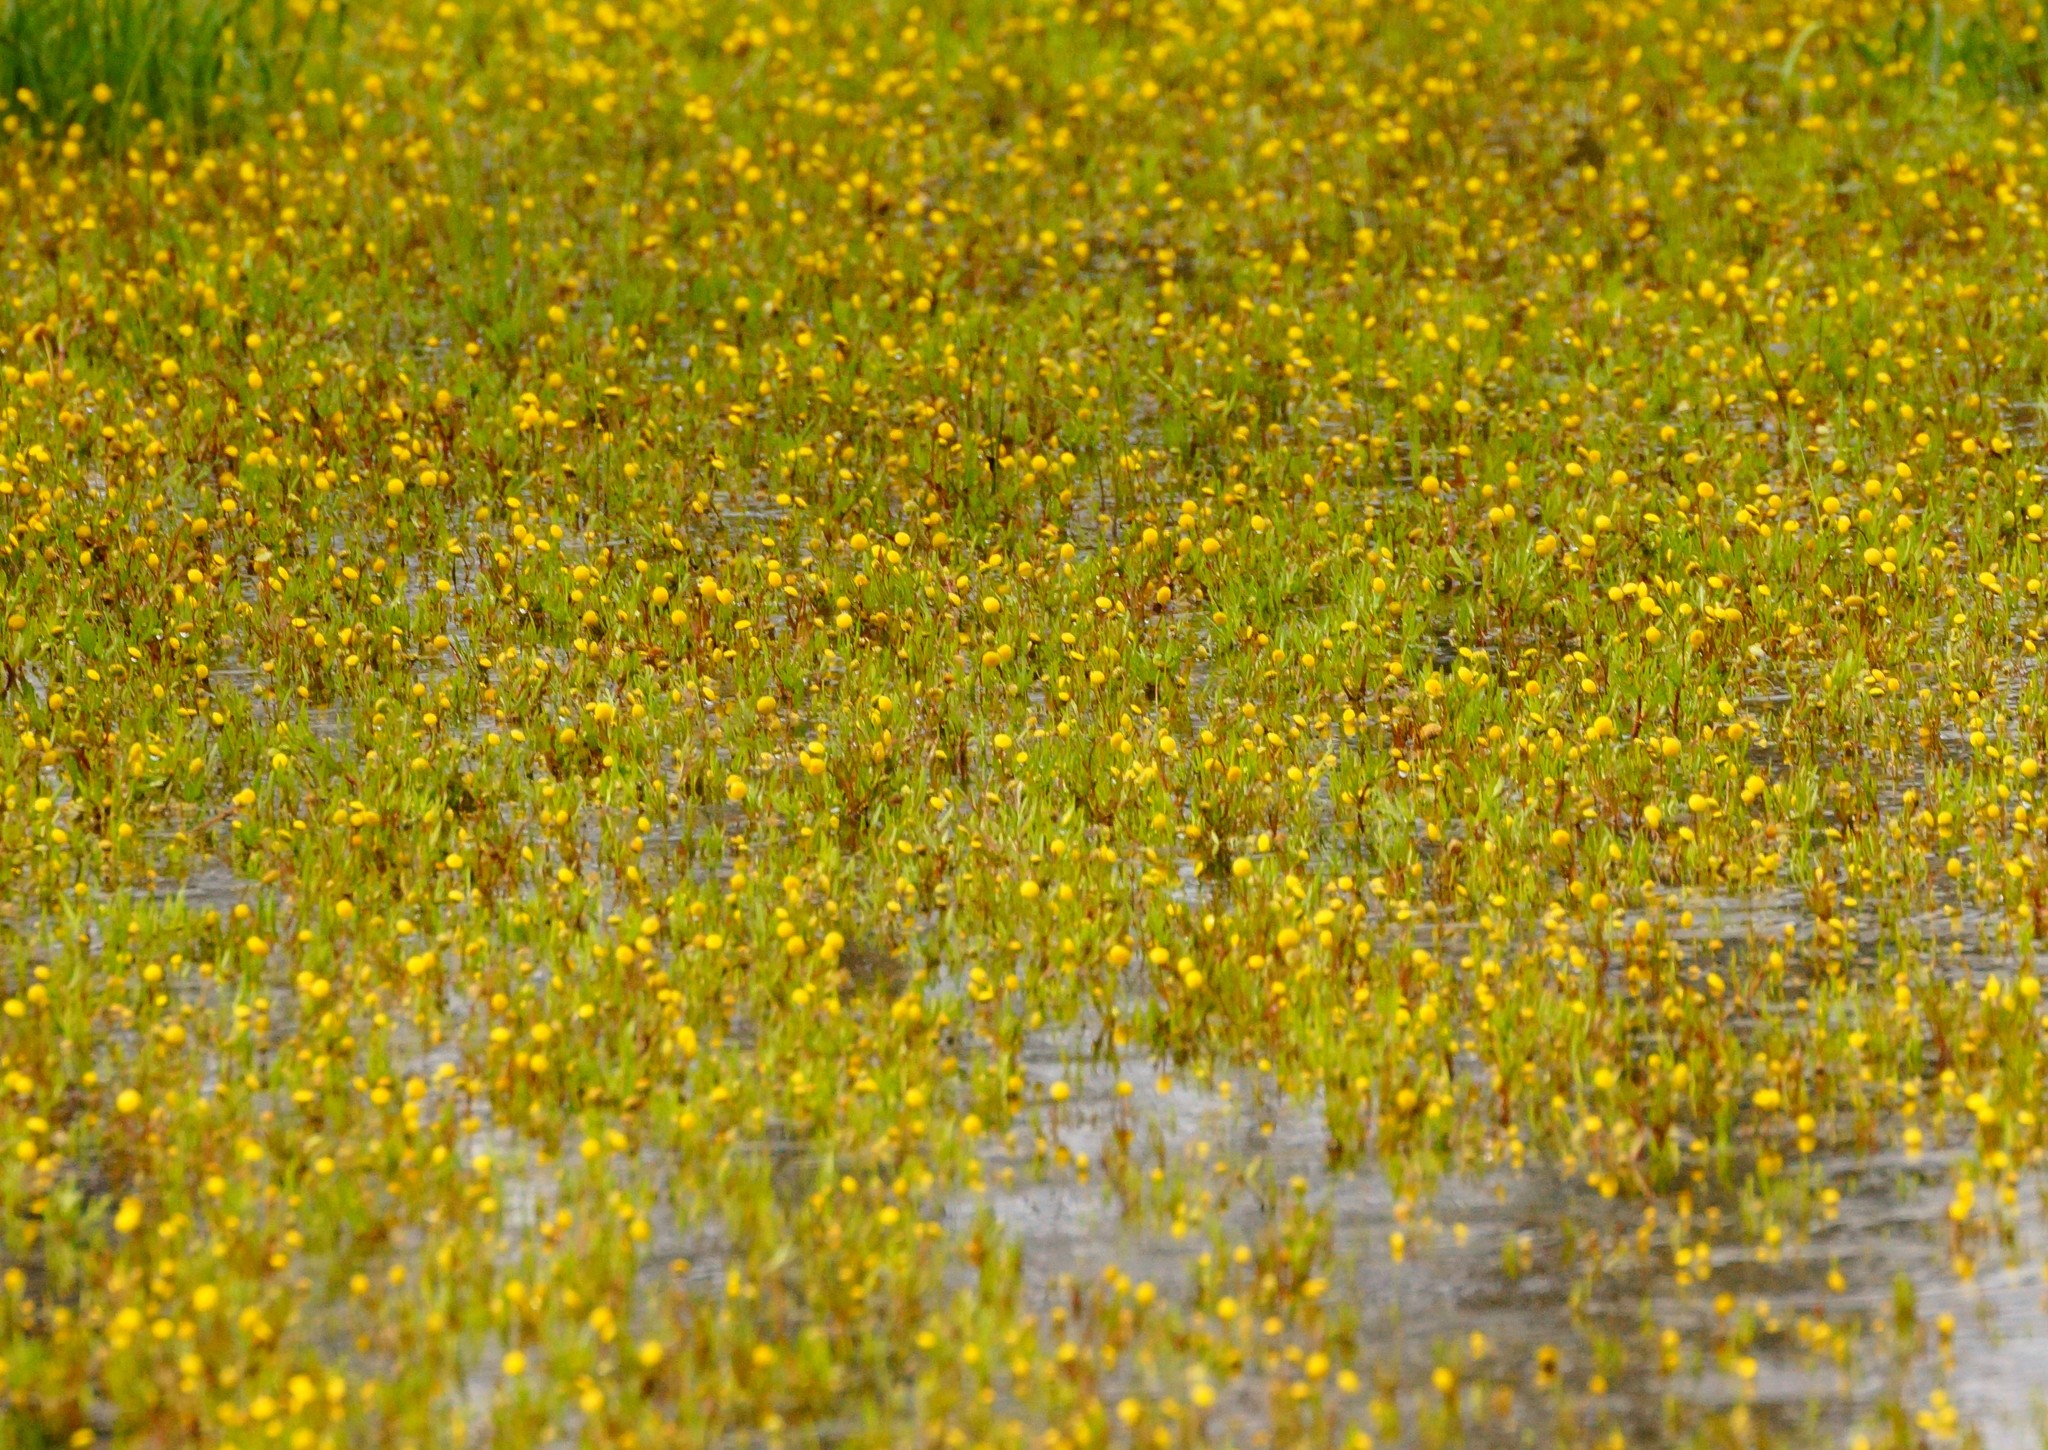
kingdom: Plantae
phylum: Tracheophyta
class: Magnoliopsida
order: Asterales
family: Asteraceae
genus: Cotula
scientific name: Cotula coronopifolia
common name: Buttonweed
